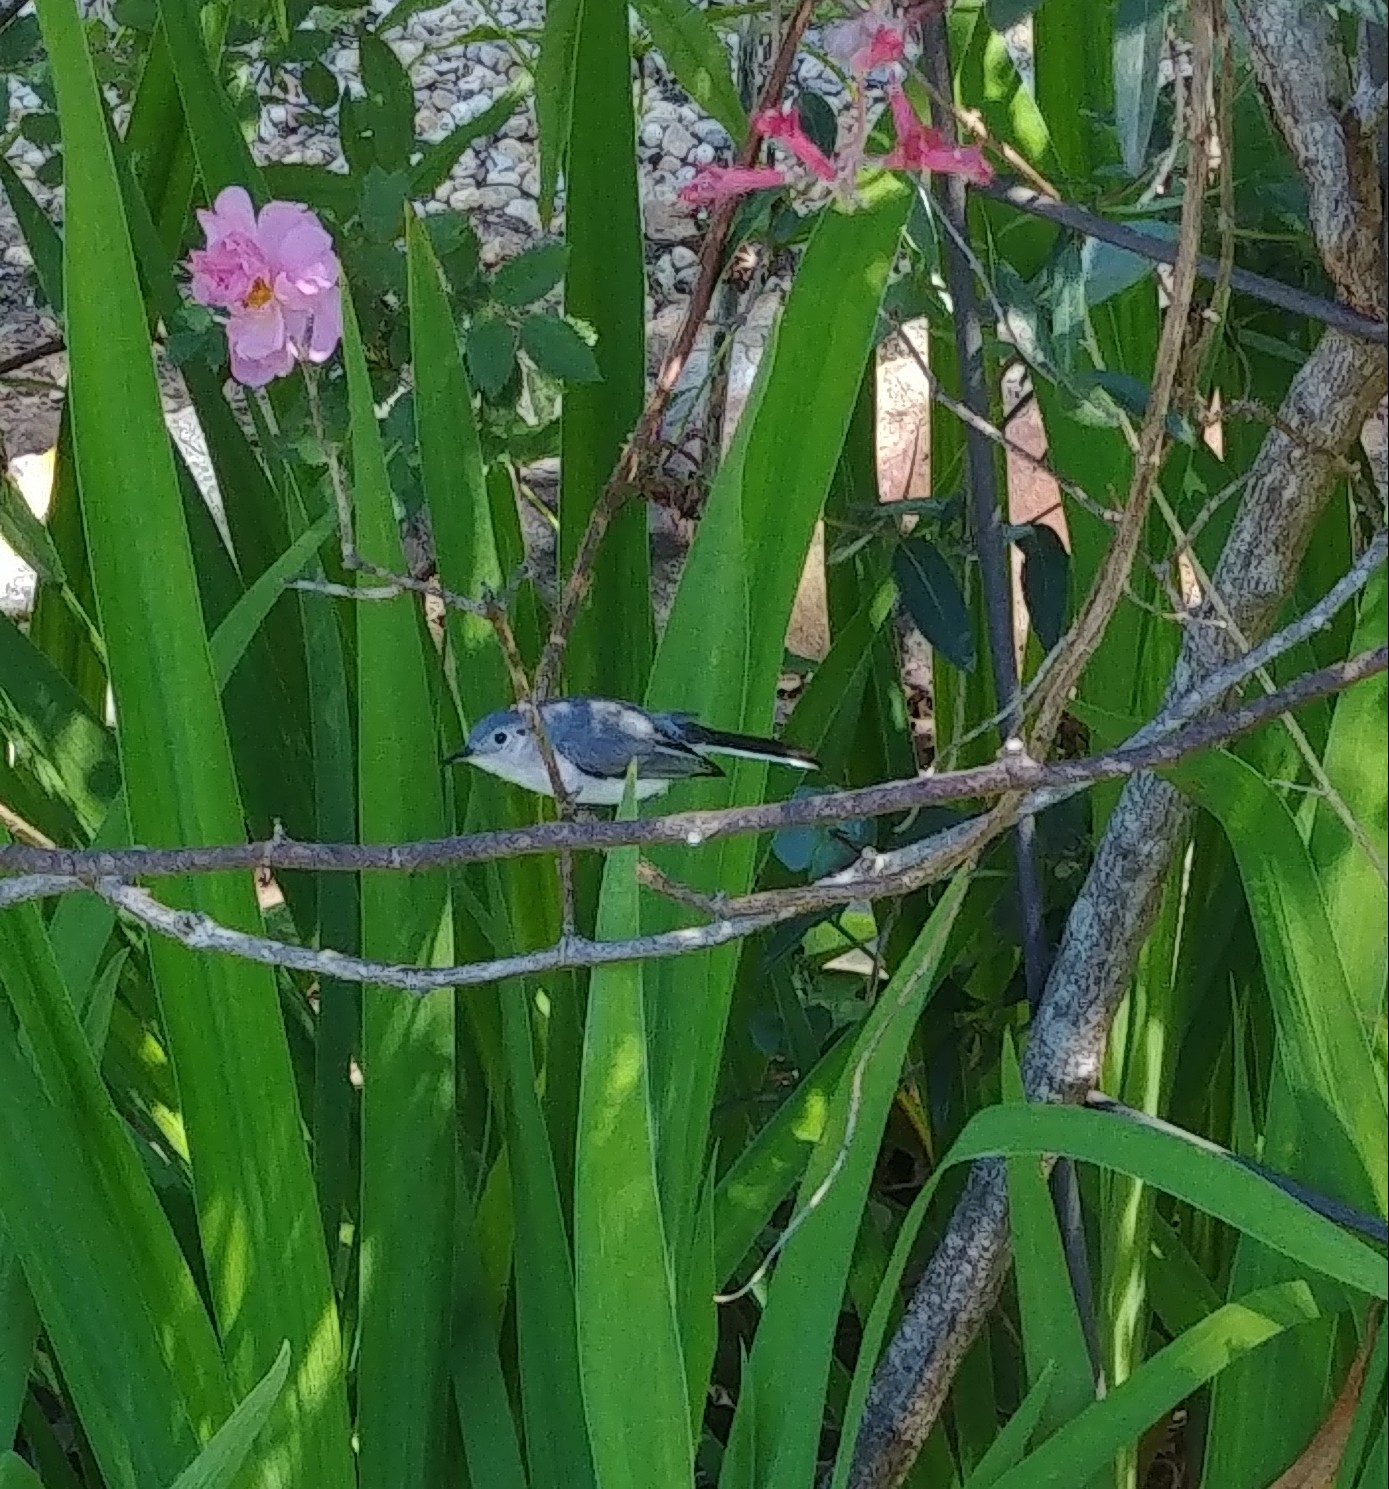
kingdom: Animalia
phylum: Chordata
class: Aves
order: Passeriformes
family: Polioptilidae
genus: Polioptila
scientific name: Polioptila caerulea
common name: Blue-gray gnatcatcher
